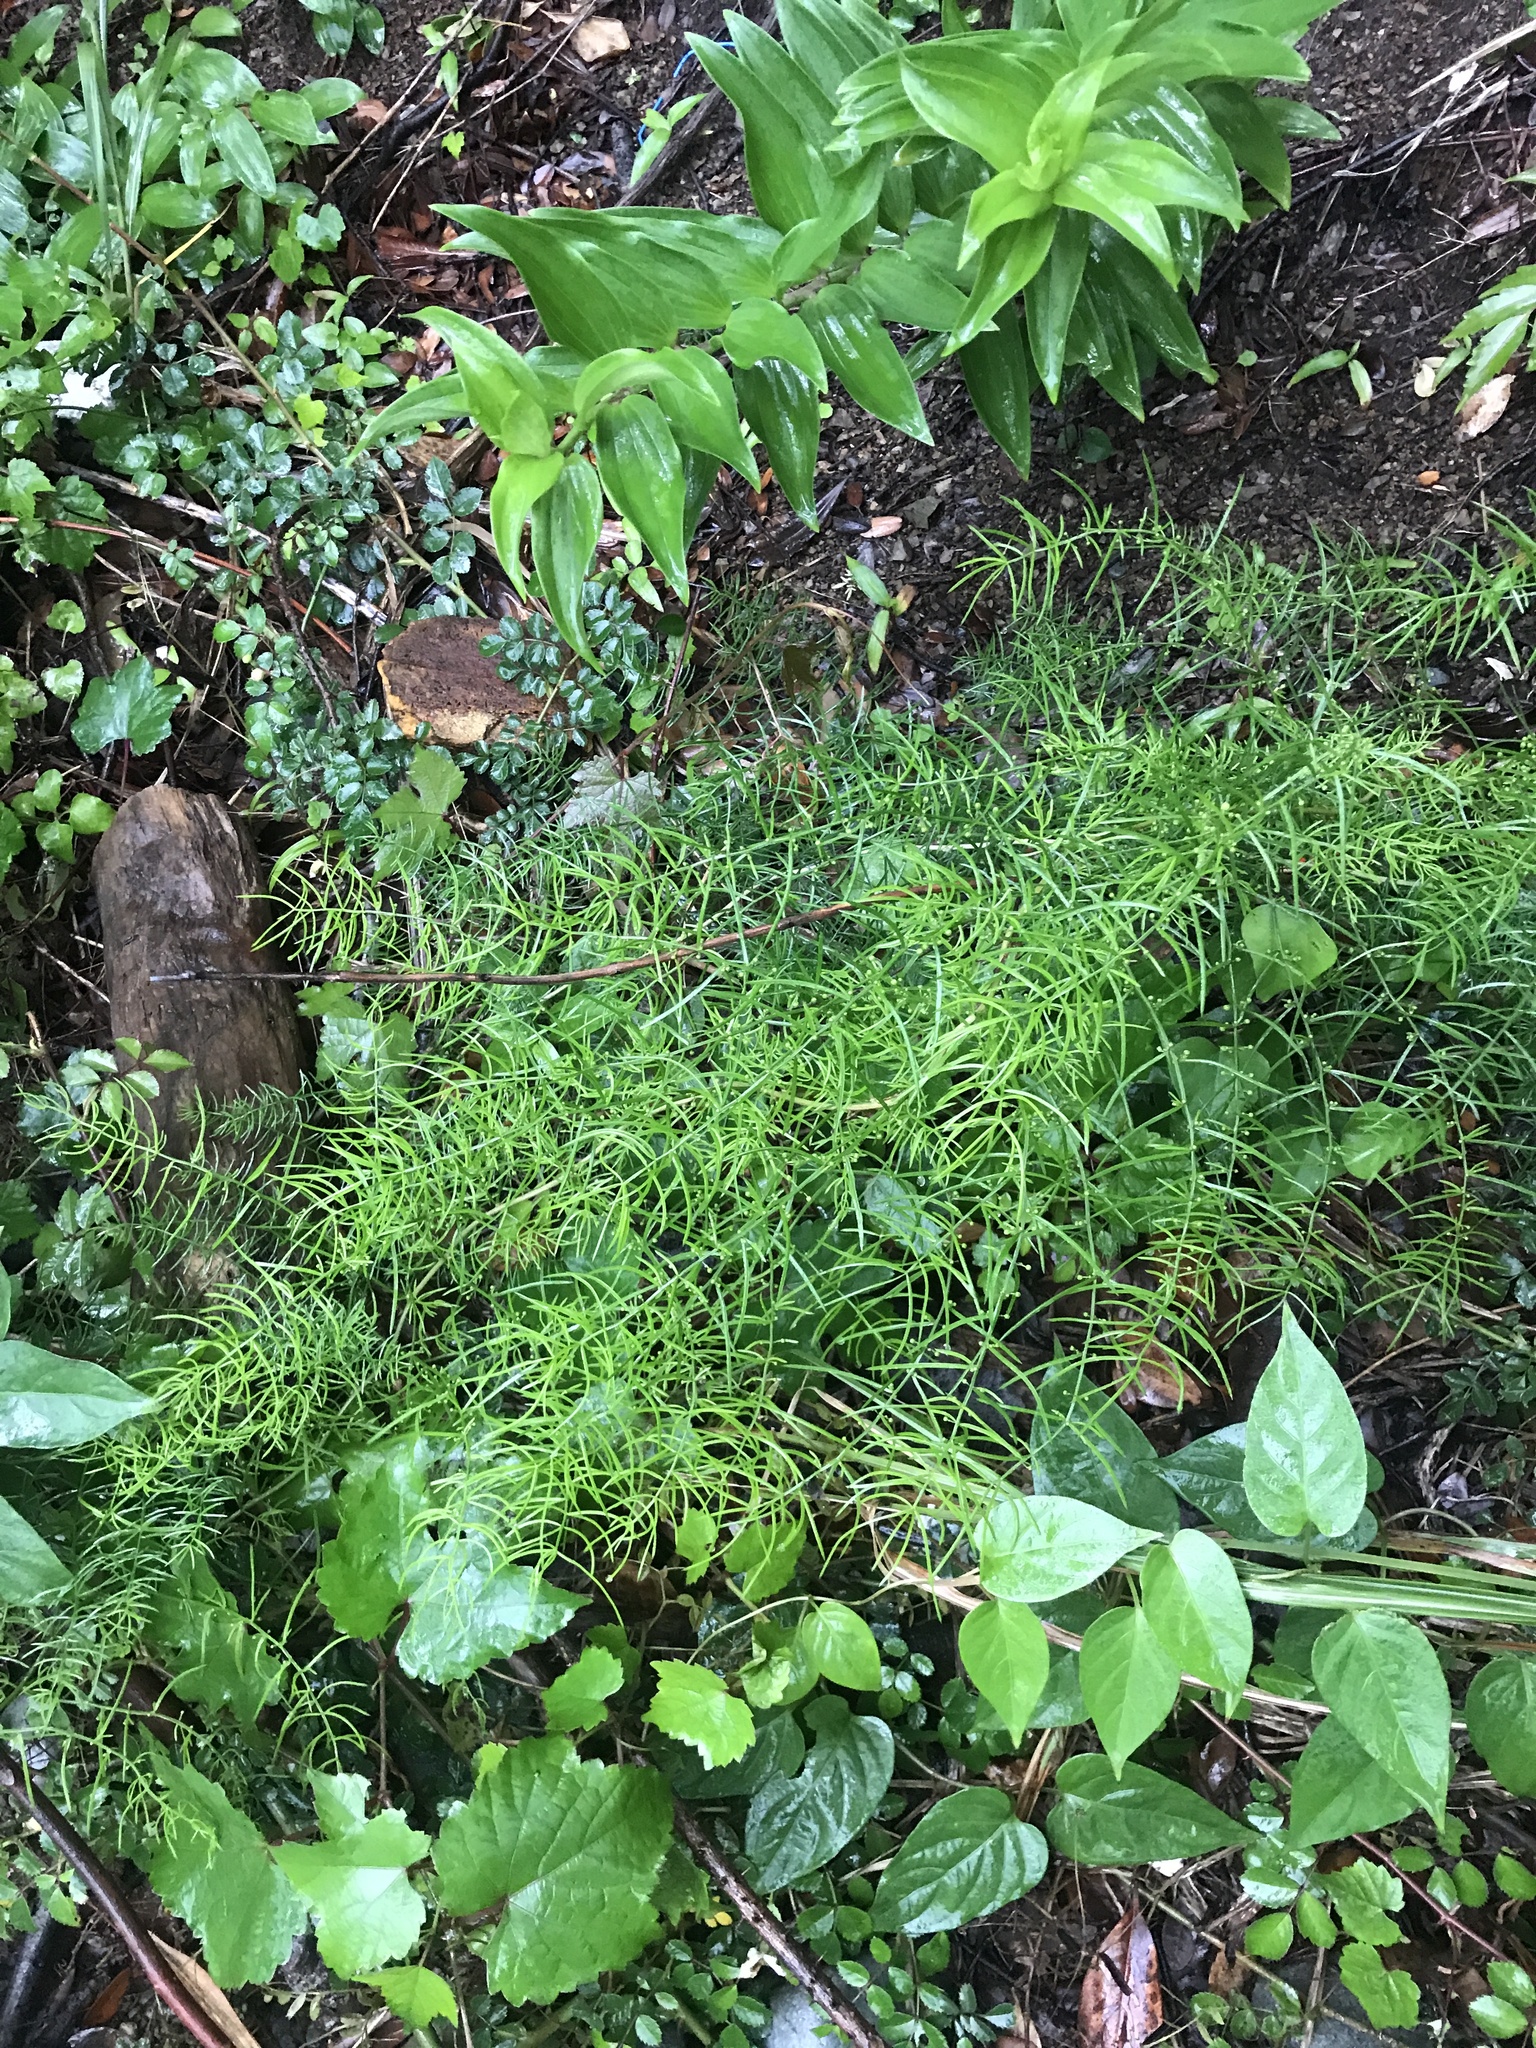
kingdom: Plantae
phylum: Tracheophyta
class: Liliopsida
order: Asparagales
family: Asparagaceae
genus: Asparagus
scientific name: Asparagus cochinchinensis
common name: Chinese asparagus
